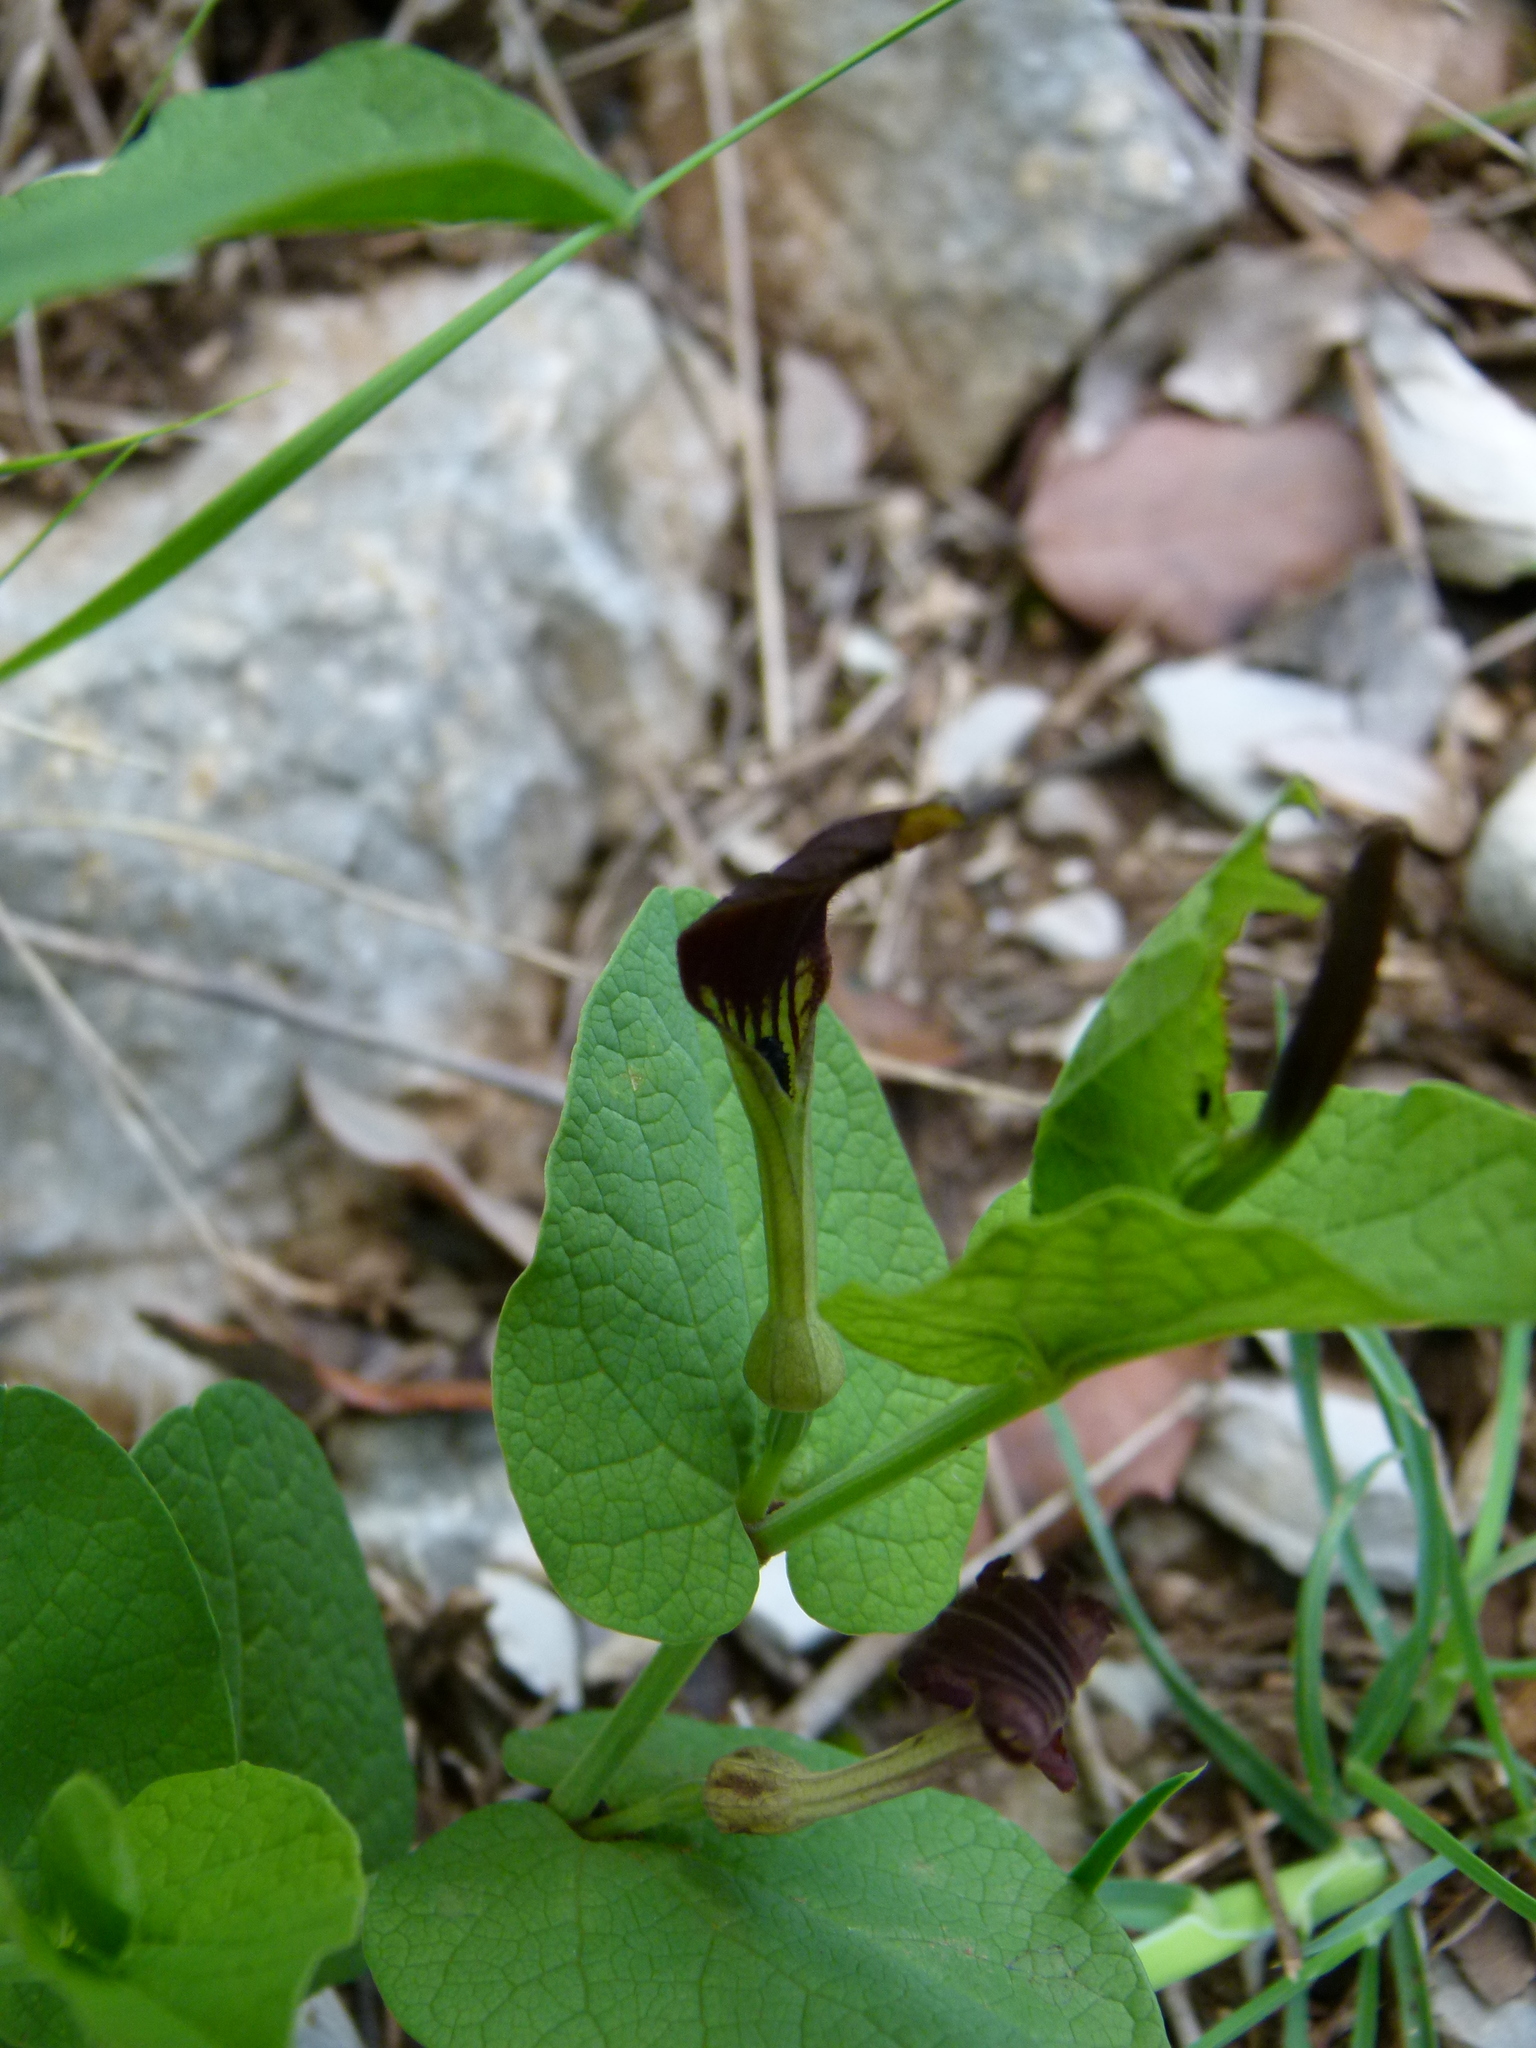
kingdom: Plantae
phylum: Tracheophyta
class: Magnoliopsida
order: Piperales
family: Aristolochiaceae
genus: Aristolochia
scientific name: Aristolochia rotunda
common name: Smearwort
